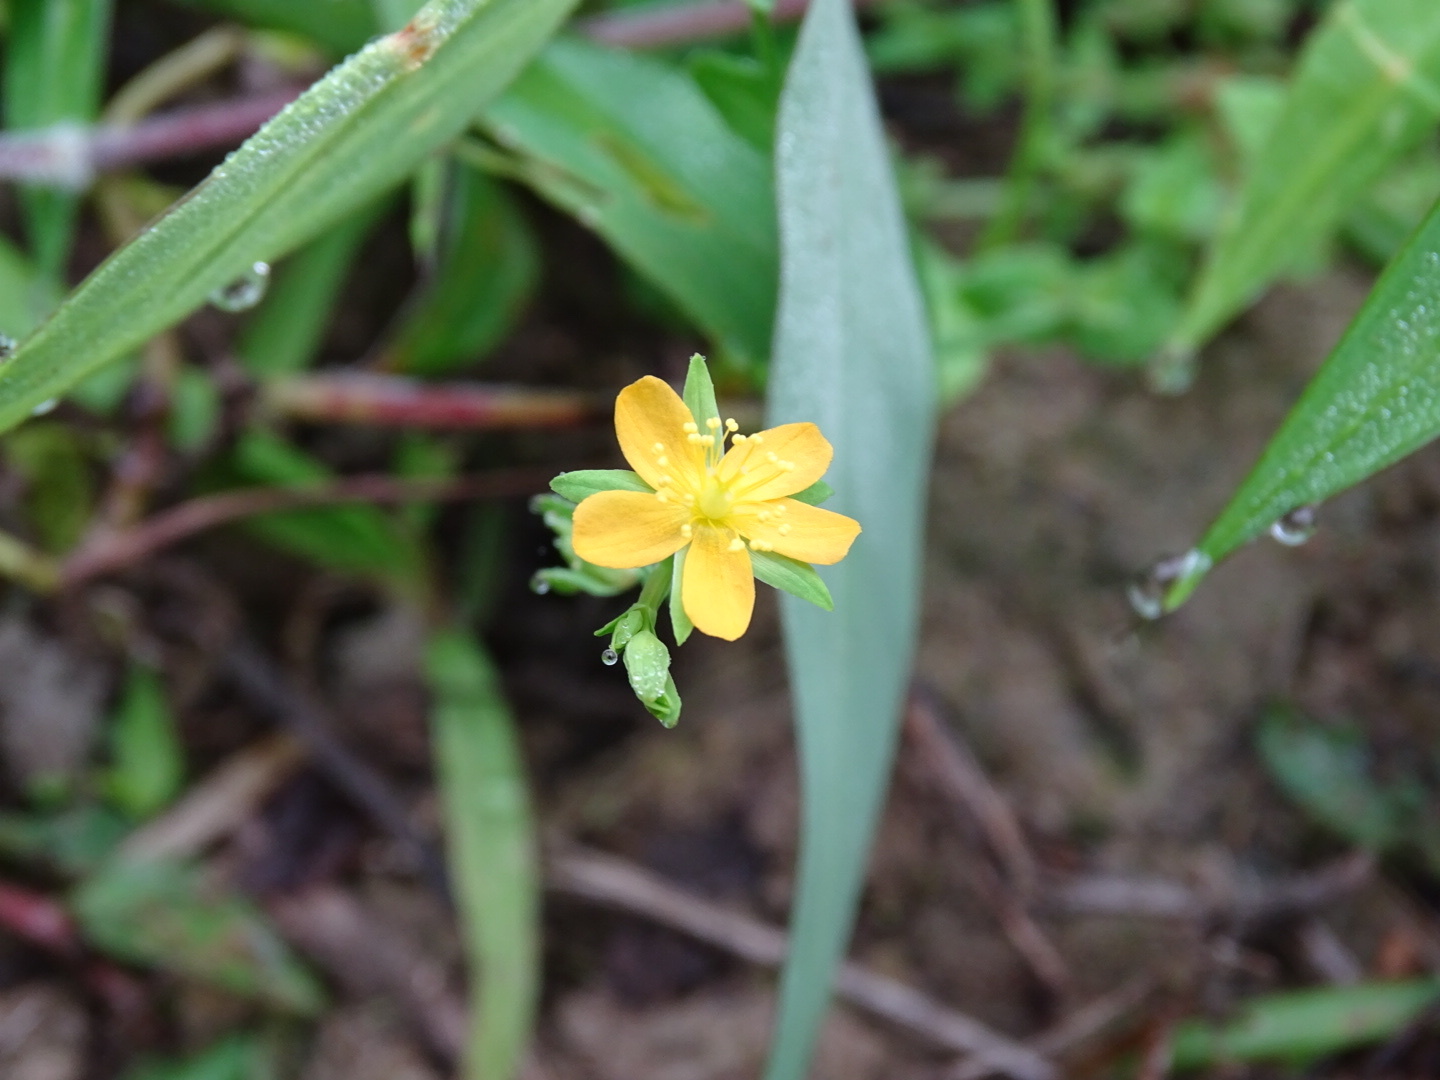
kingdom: Plantae
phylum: Tracheophyta
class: Magnoliopsida
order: Malpighiales
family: Hypericaceae
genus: Hypericum
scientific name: Hypericum japonicum
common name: Matted st. john's-wort
